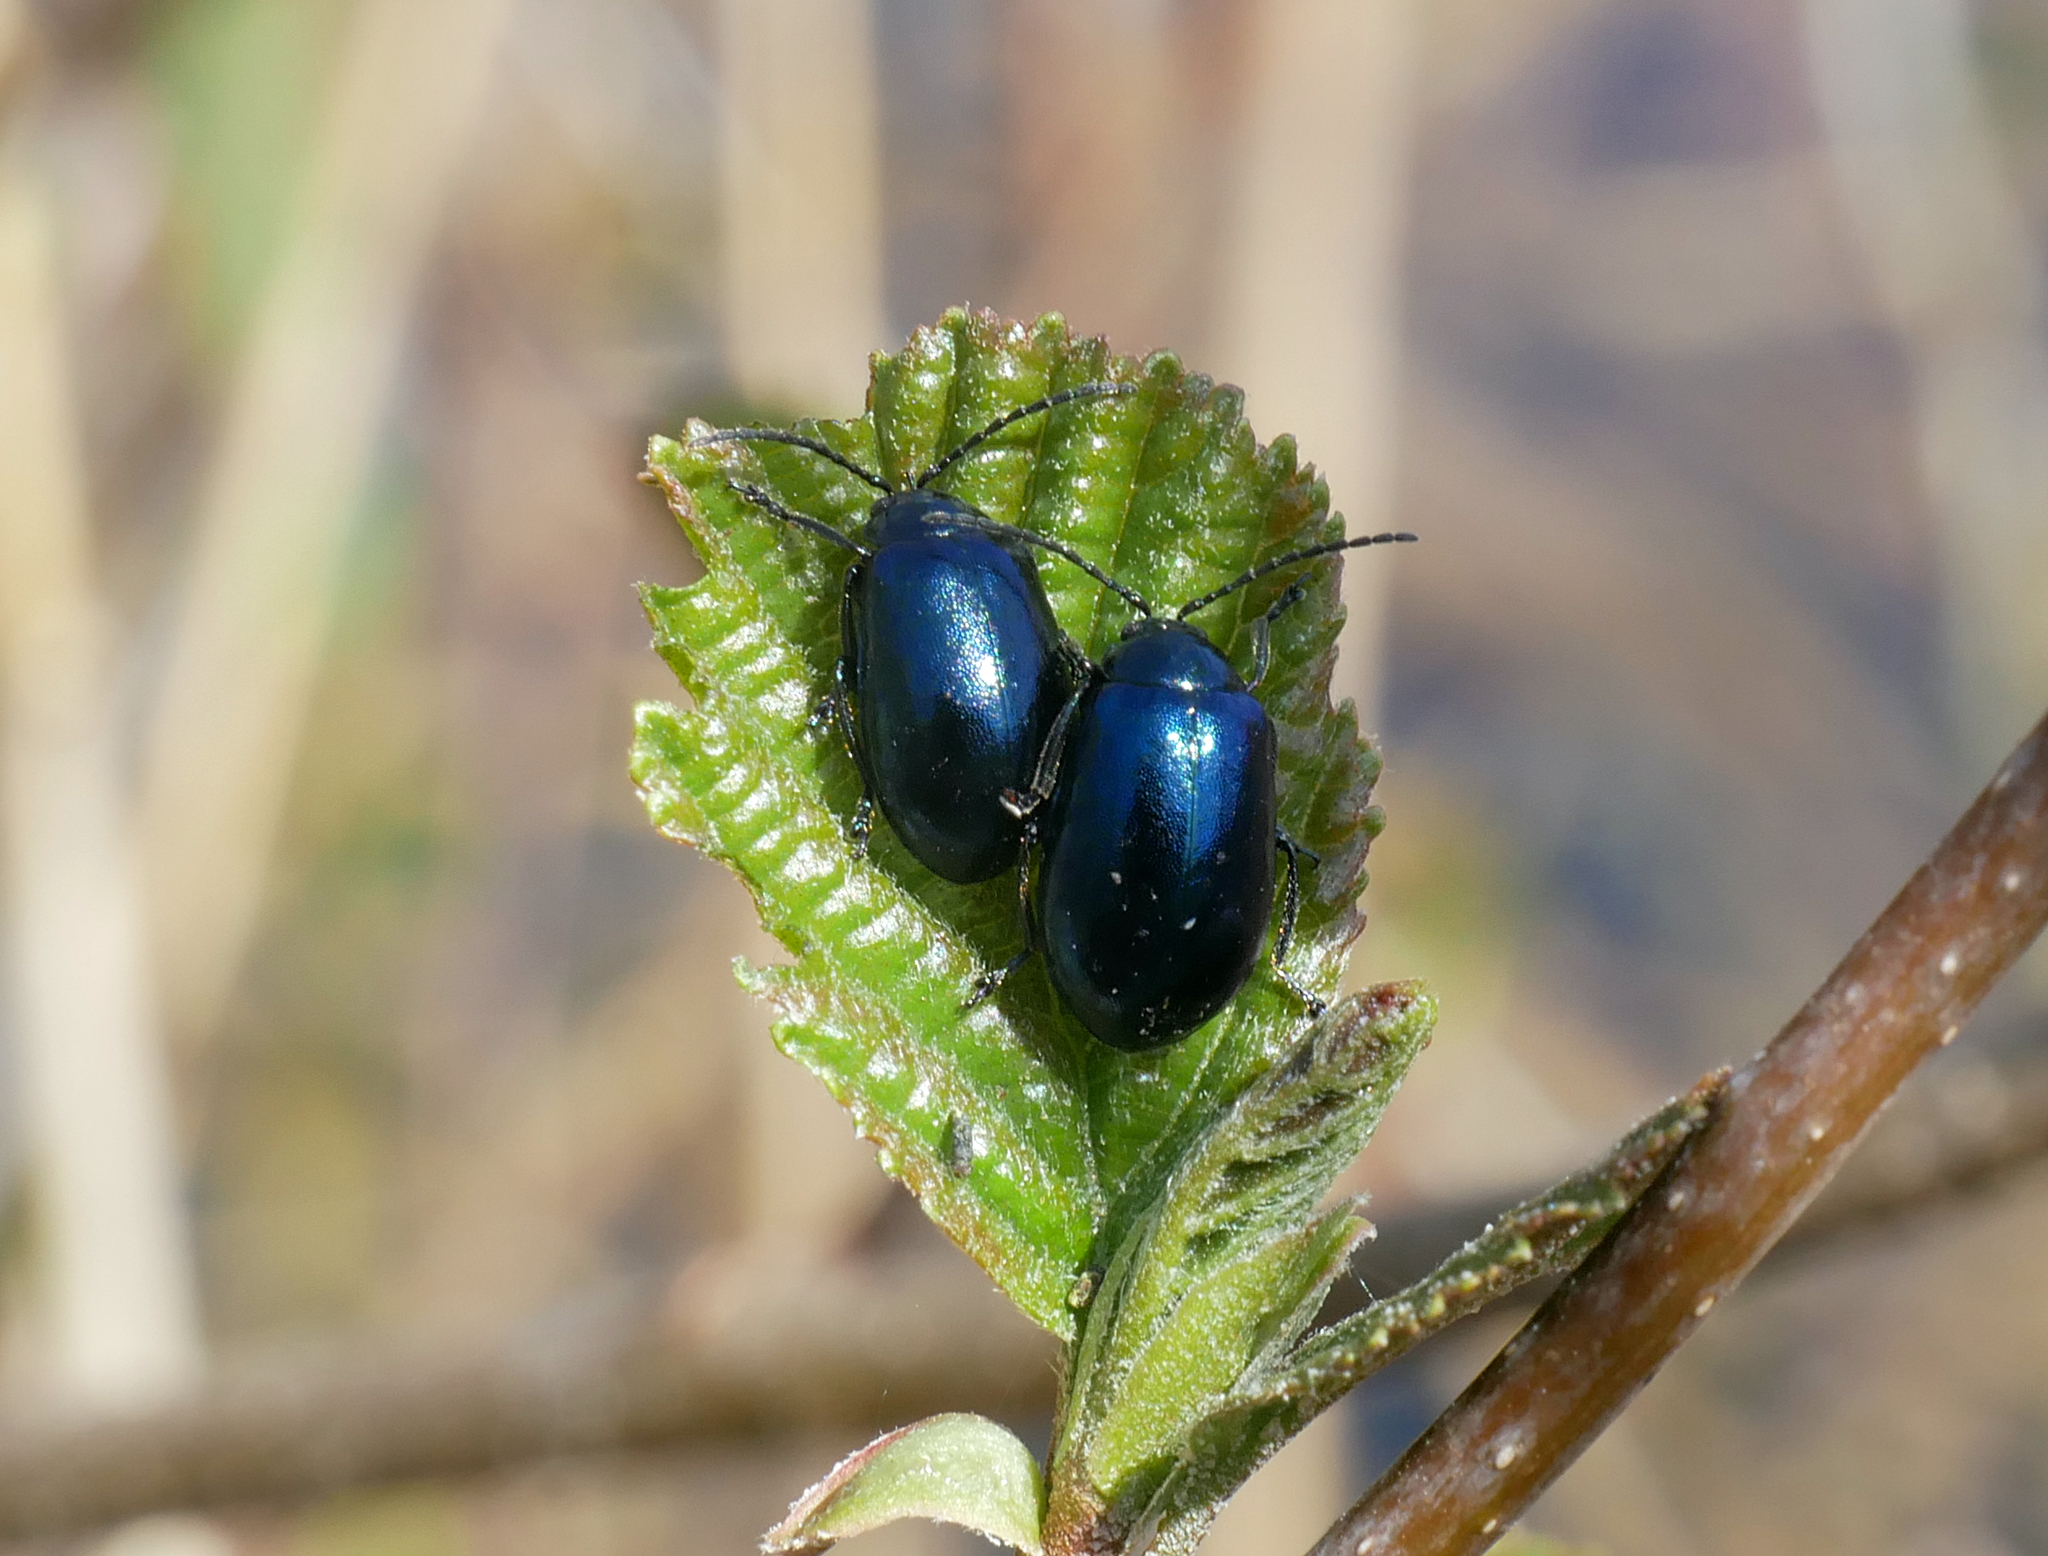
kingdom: Animalia
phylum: Arthropoda
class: Insecta
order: Coleoptera
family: Chrysomelidae
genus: Agelastica
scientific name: Agelastica alni
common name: Alder leaf beetle
